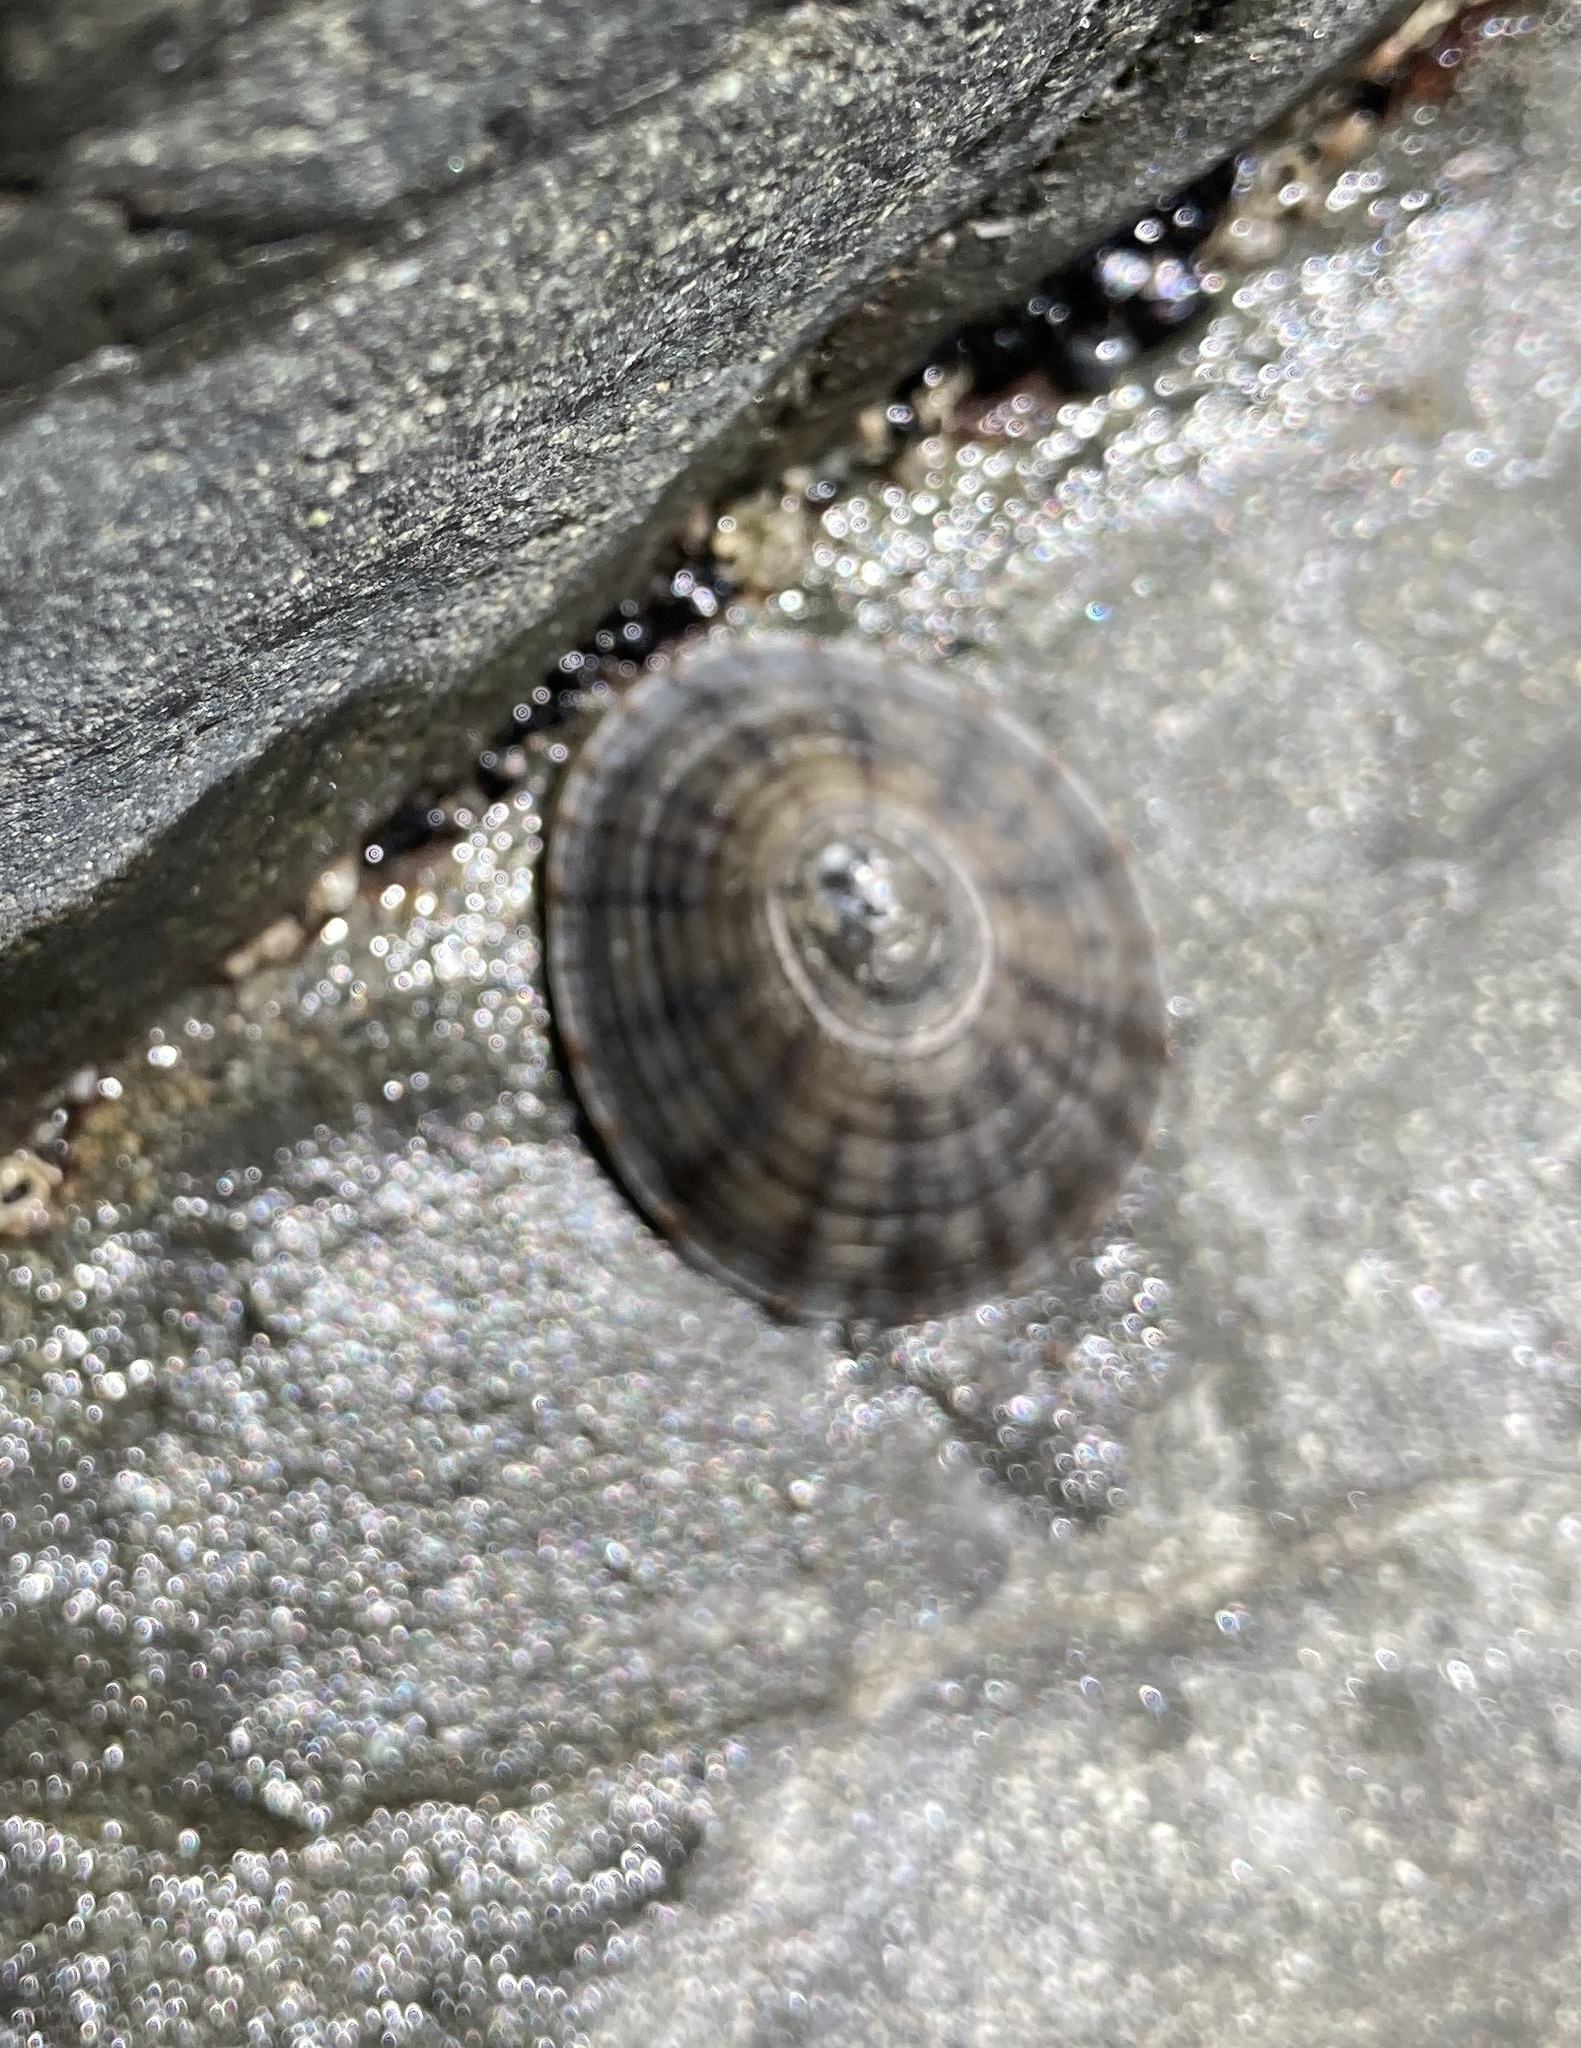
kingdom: Animalia
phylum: Mollusca
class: Gastropoda
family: Nacellidae
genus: Cellana
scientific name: Cellana radians
